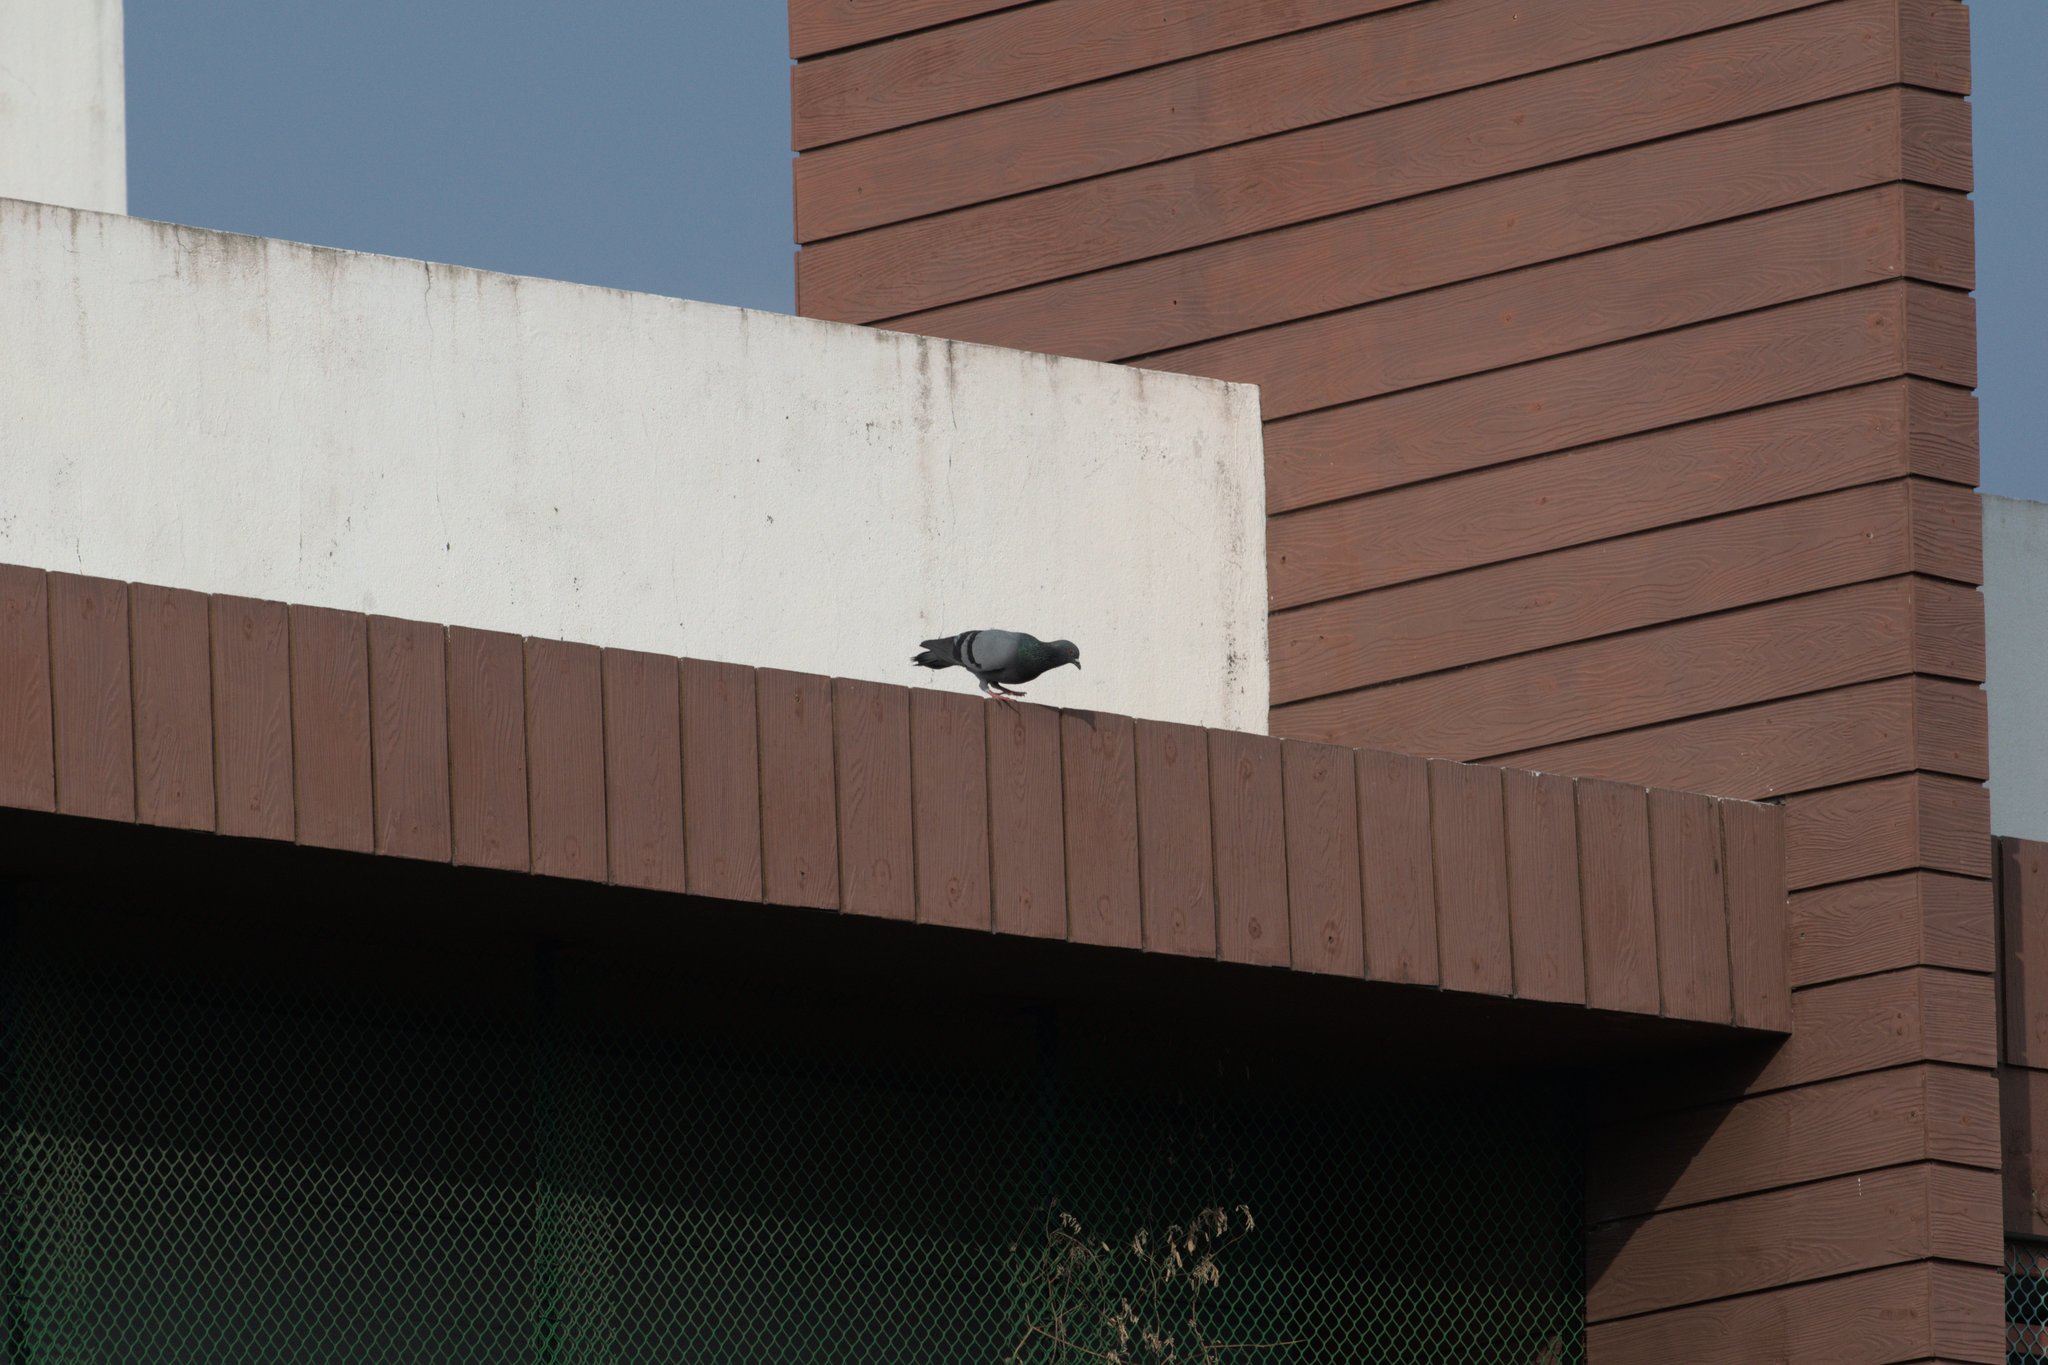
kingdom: Animalia
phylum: Chordata
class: Aves
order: Columbiformes
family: Columbidae
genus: Columba
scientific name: Columba livia
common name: Rock pigeon
